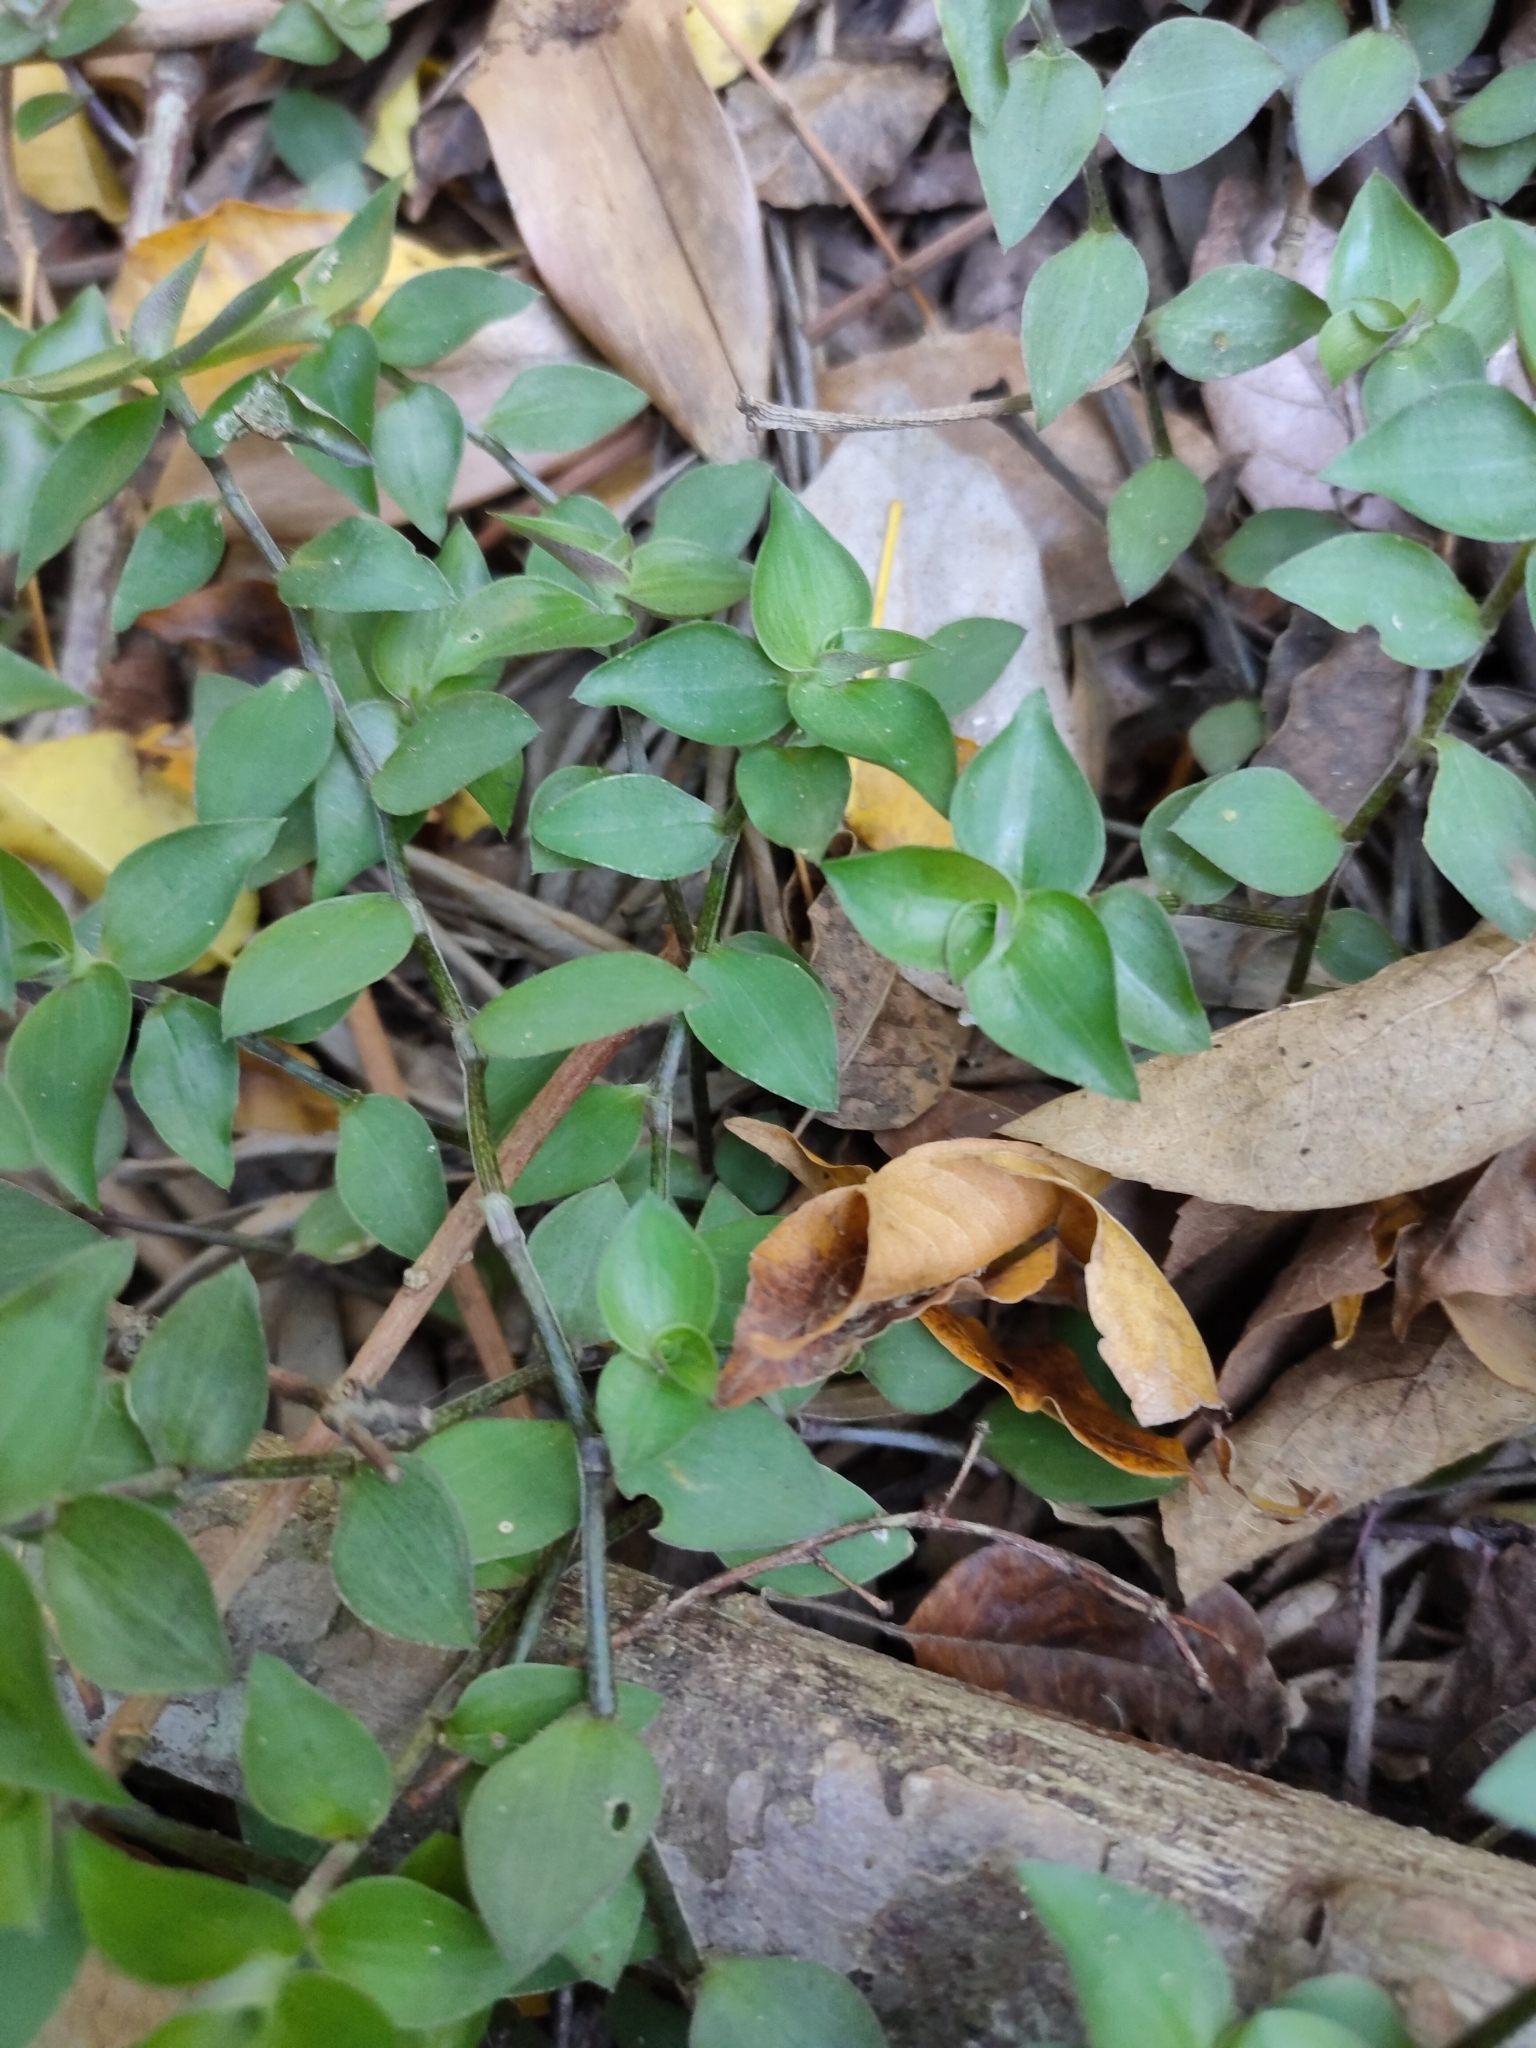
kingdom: Plantae
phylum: Tracheophyta
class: Liliopsida
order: Commelinales
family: Commelinaceae
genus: Callisia
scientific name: Callisia repens
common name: Creeping inchplant
